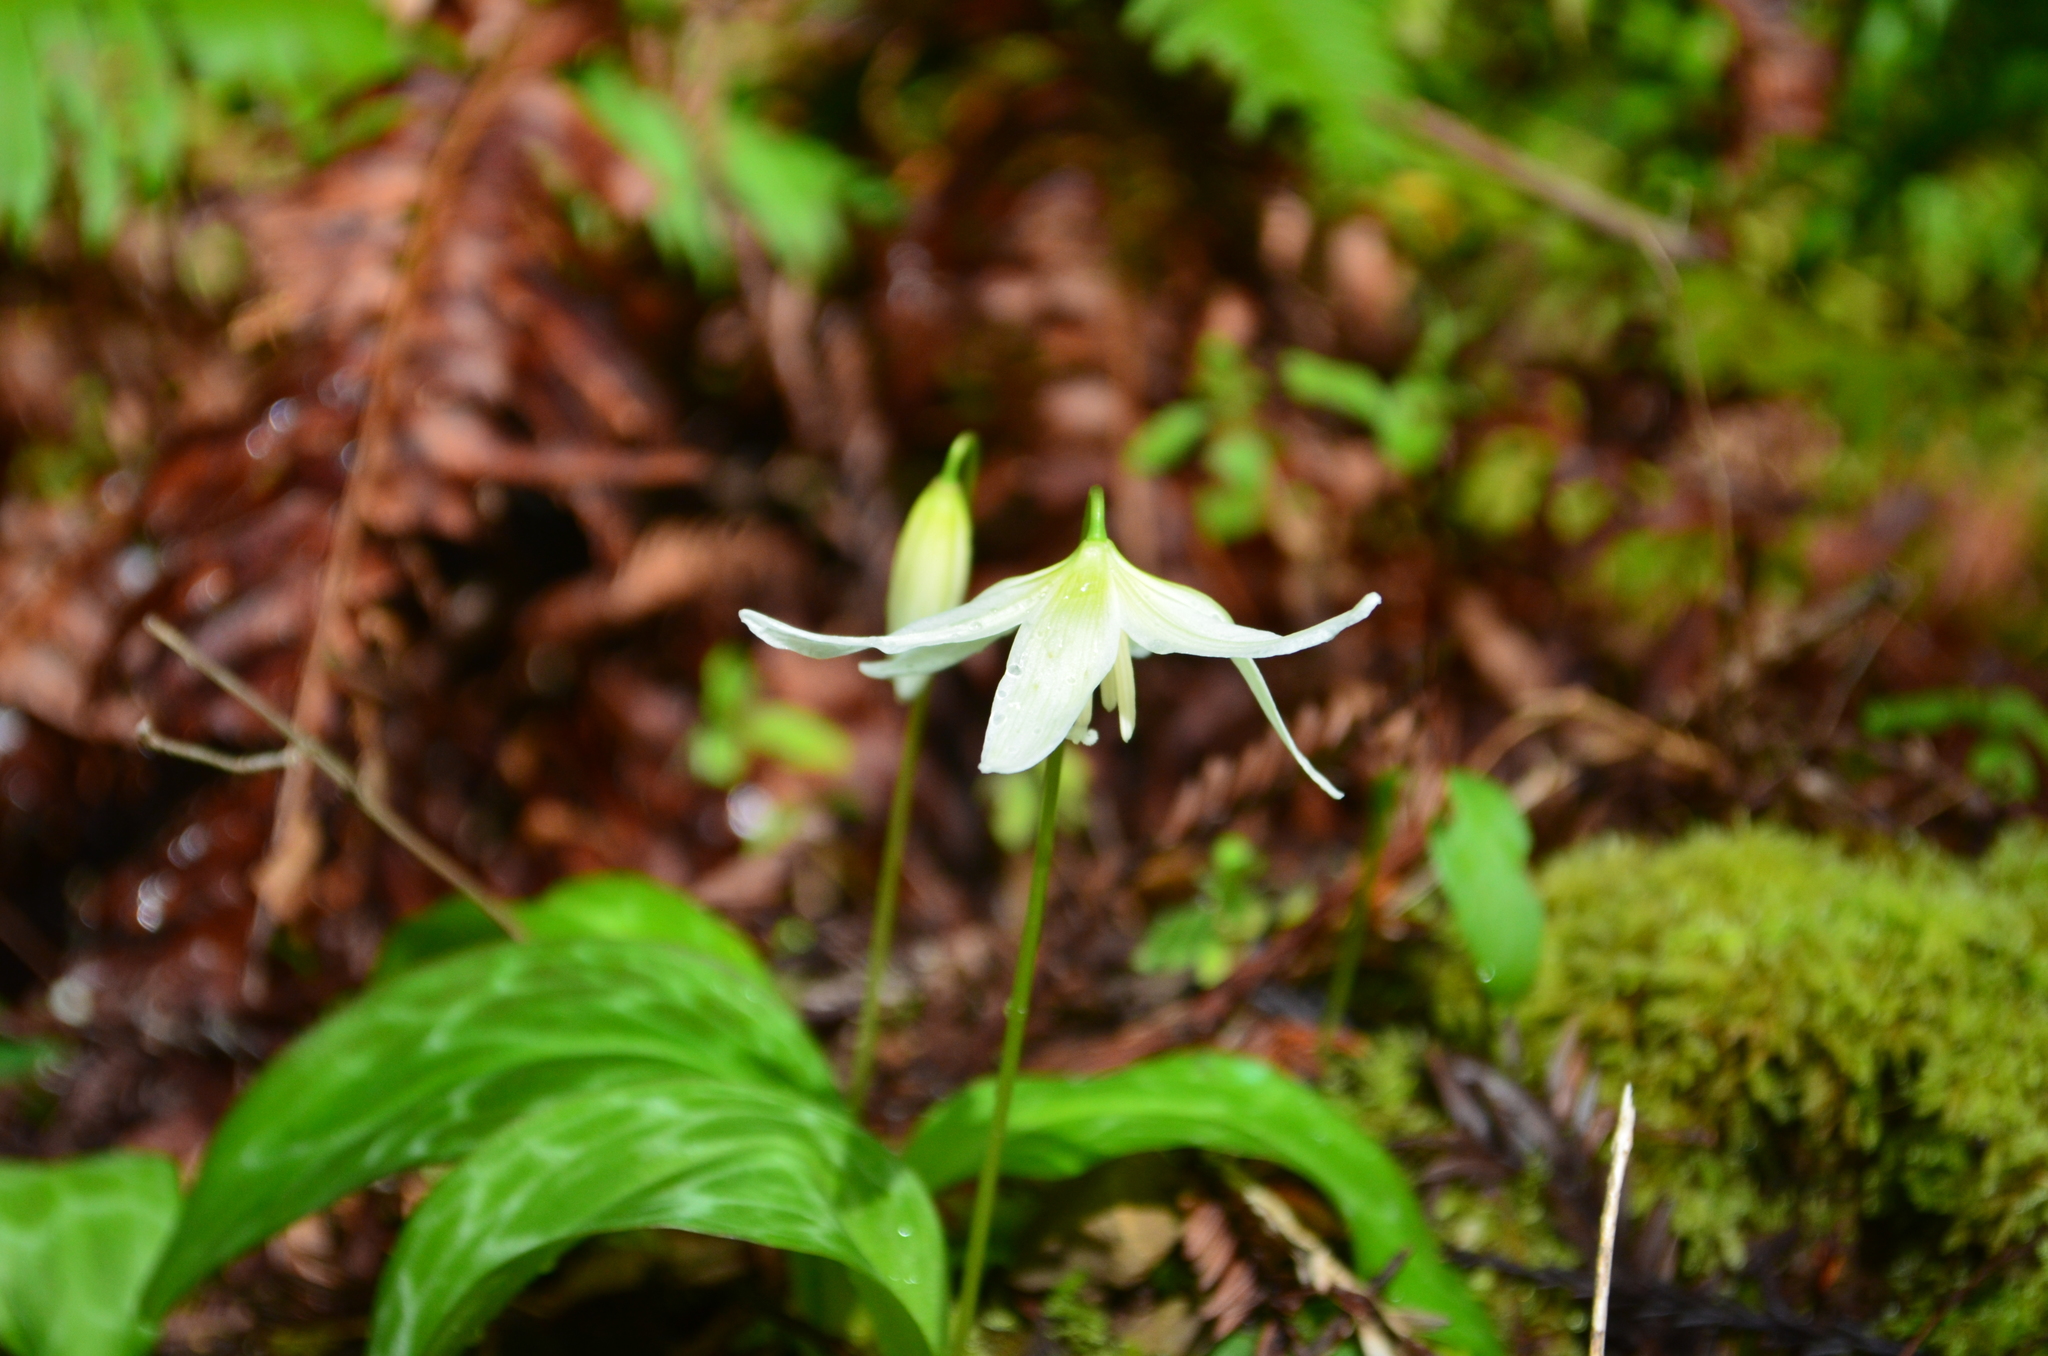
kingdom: Plantae
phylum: Tracheophyta
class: Liliopsida
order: Liliales
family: Liliaceae
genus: Erythronium
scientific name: Erythronium californicum
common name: Fawn-lily
